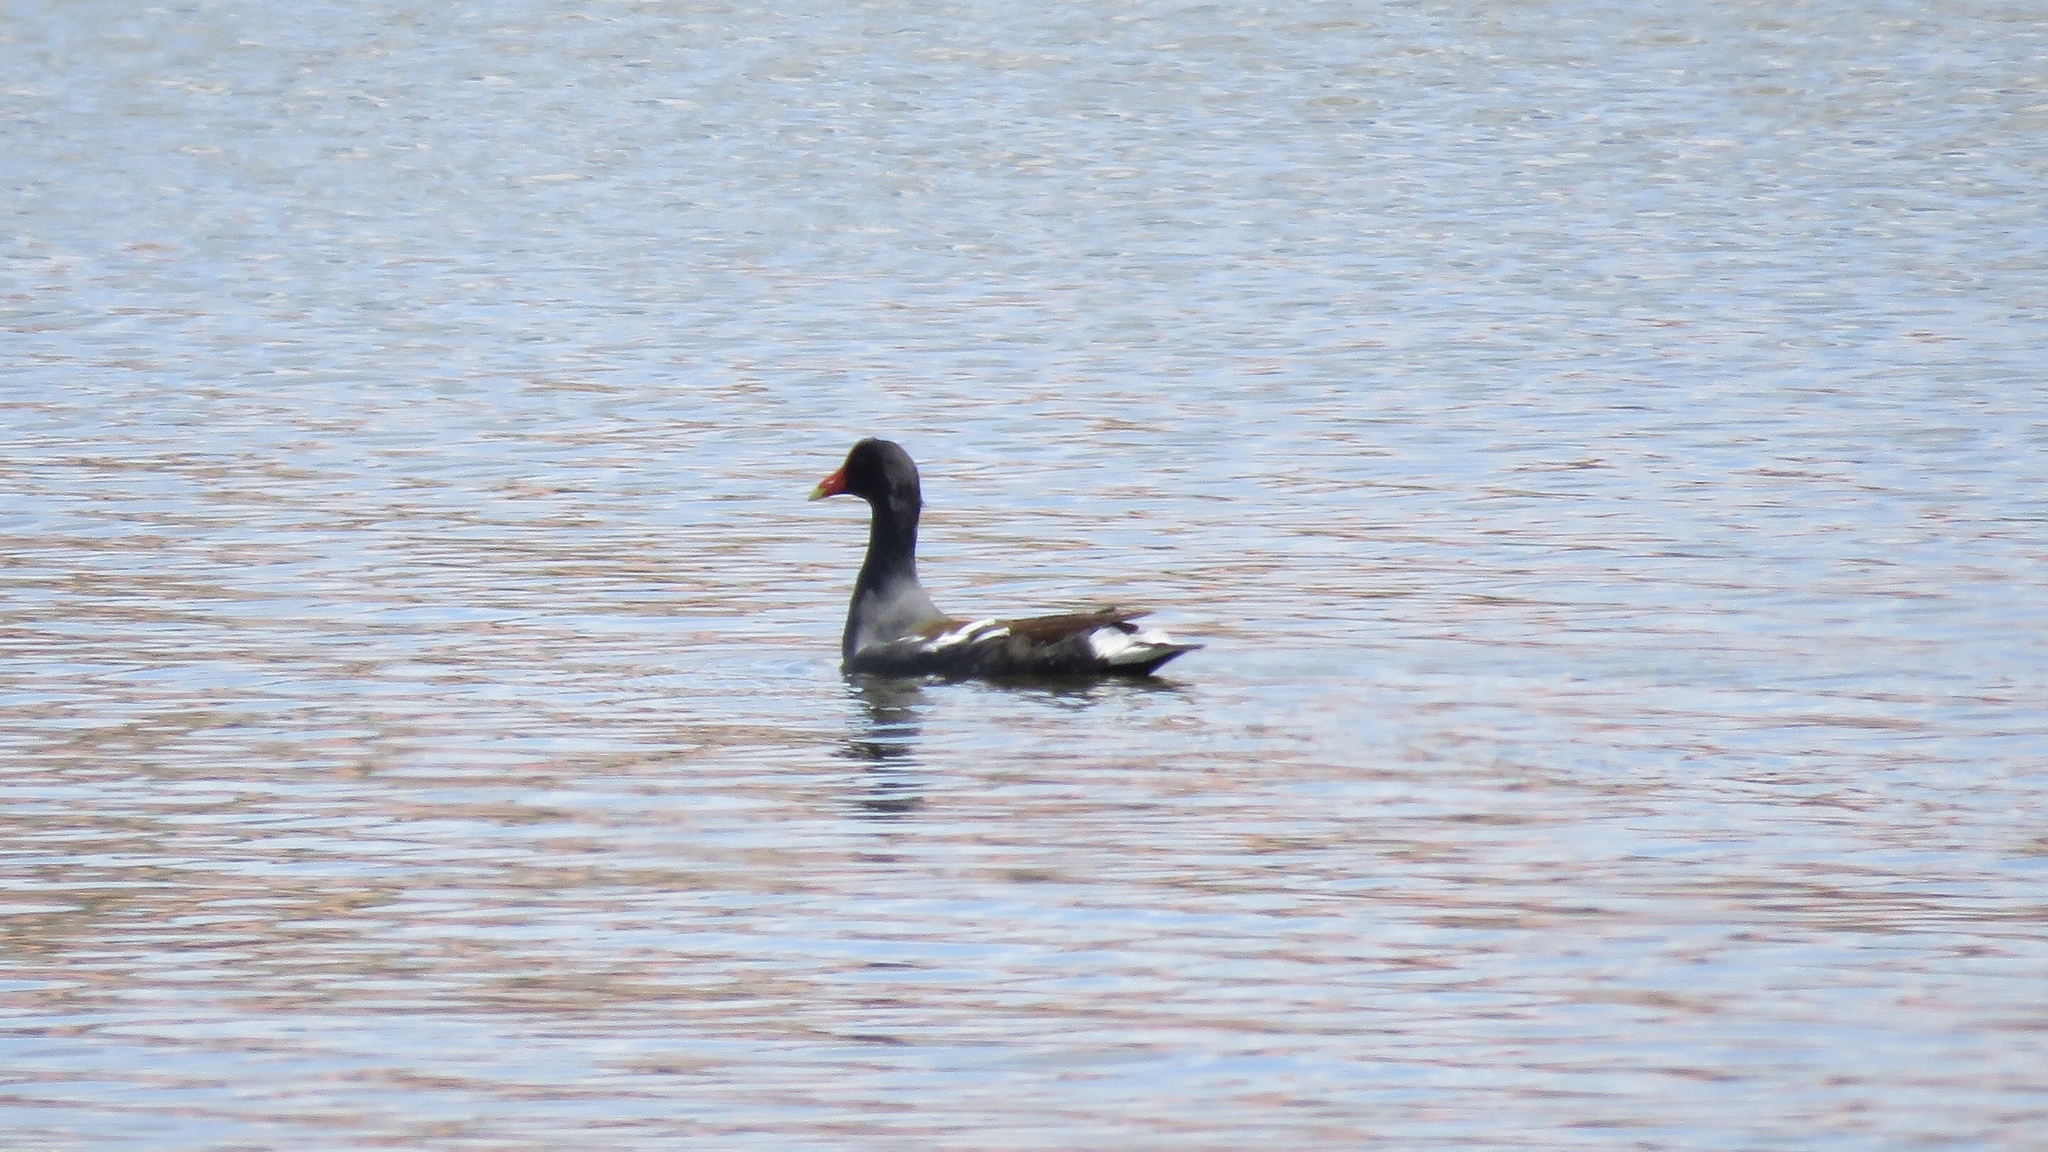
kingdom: Animalia
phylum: Chordata
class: Aves
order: Gruiformes
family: Rallidae
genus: Gallinula
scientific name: Gallinula chloropus
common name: Common moorhen
